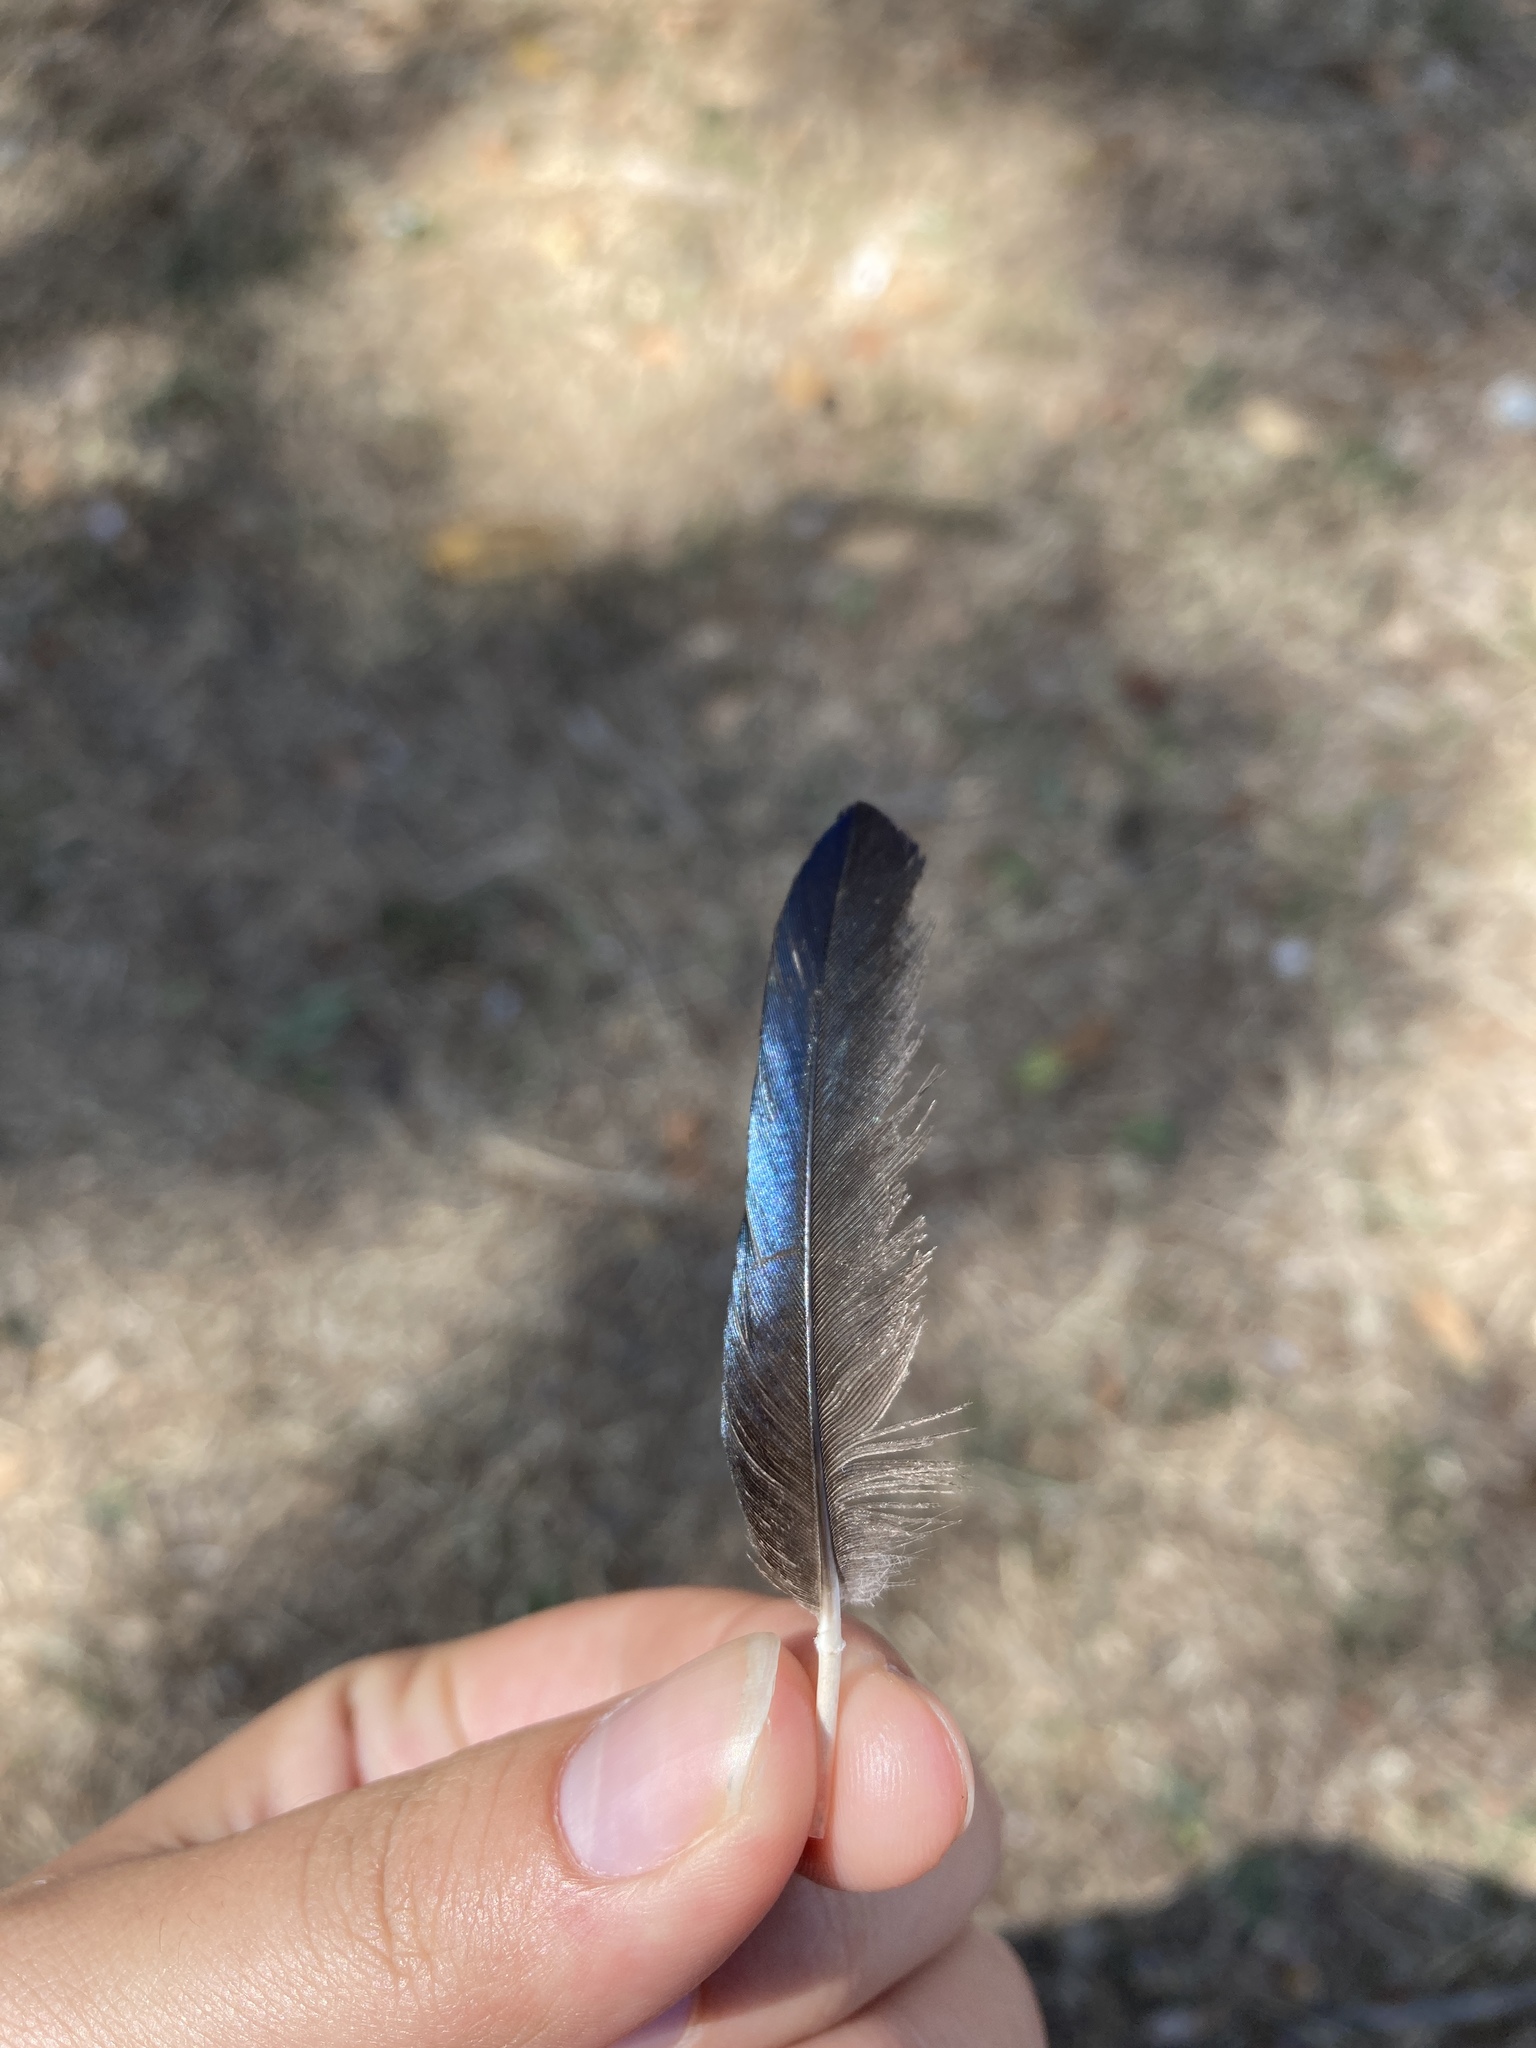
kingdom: Animalia
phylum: Chordata
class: Aves
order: Passeriformes
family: Corvidae
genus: Pica
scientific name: Pica pica
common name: Eurasian magpie
